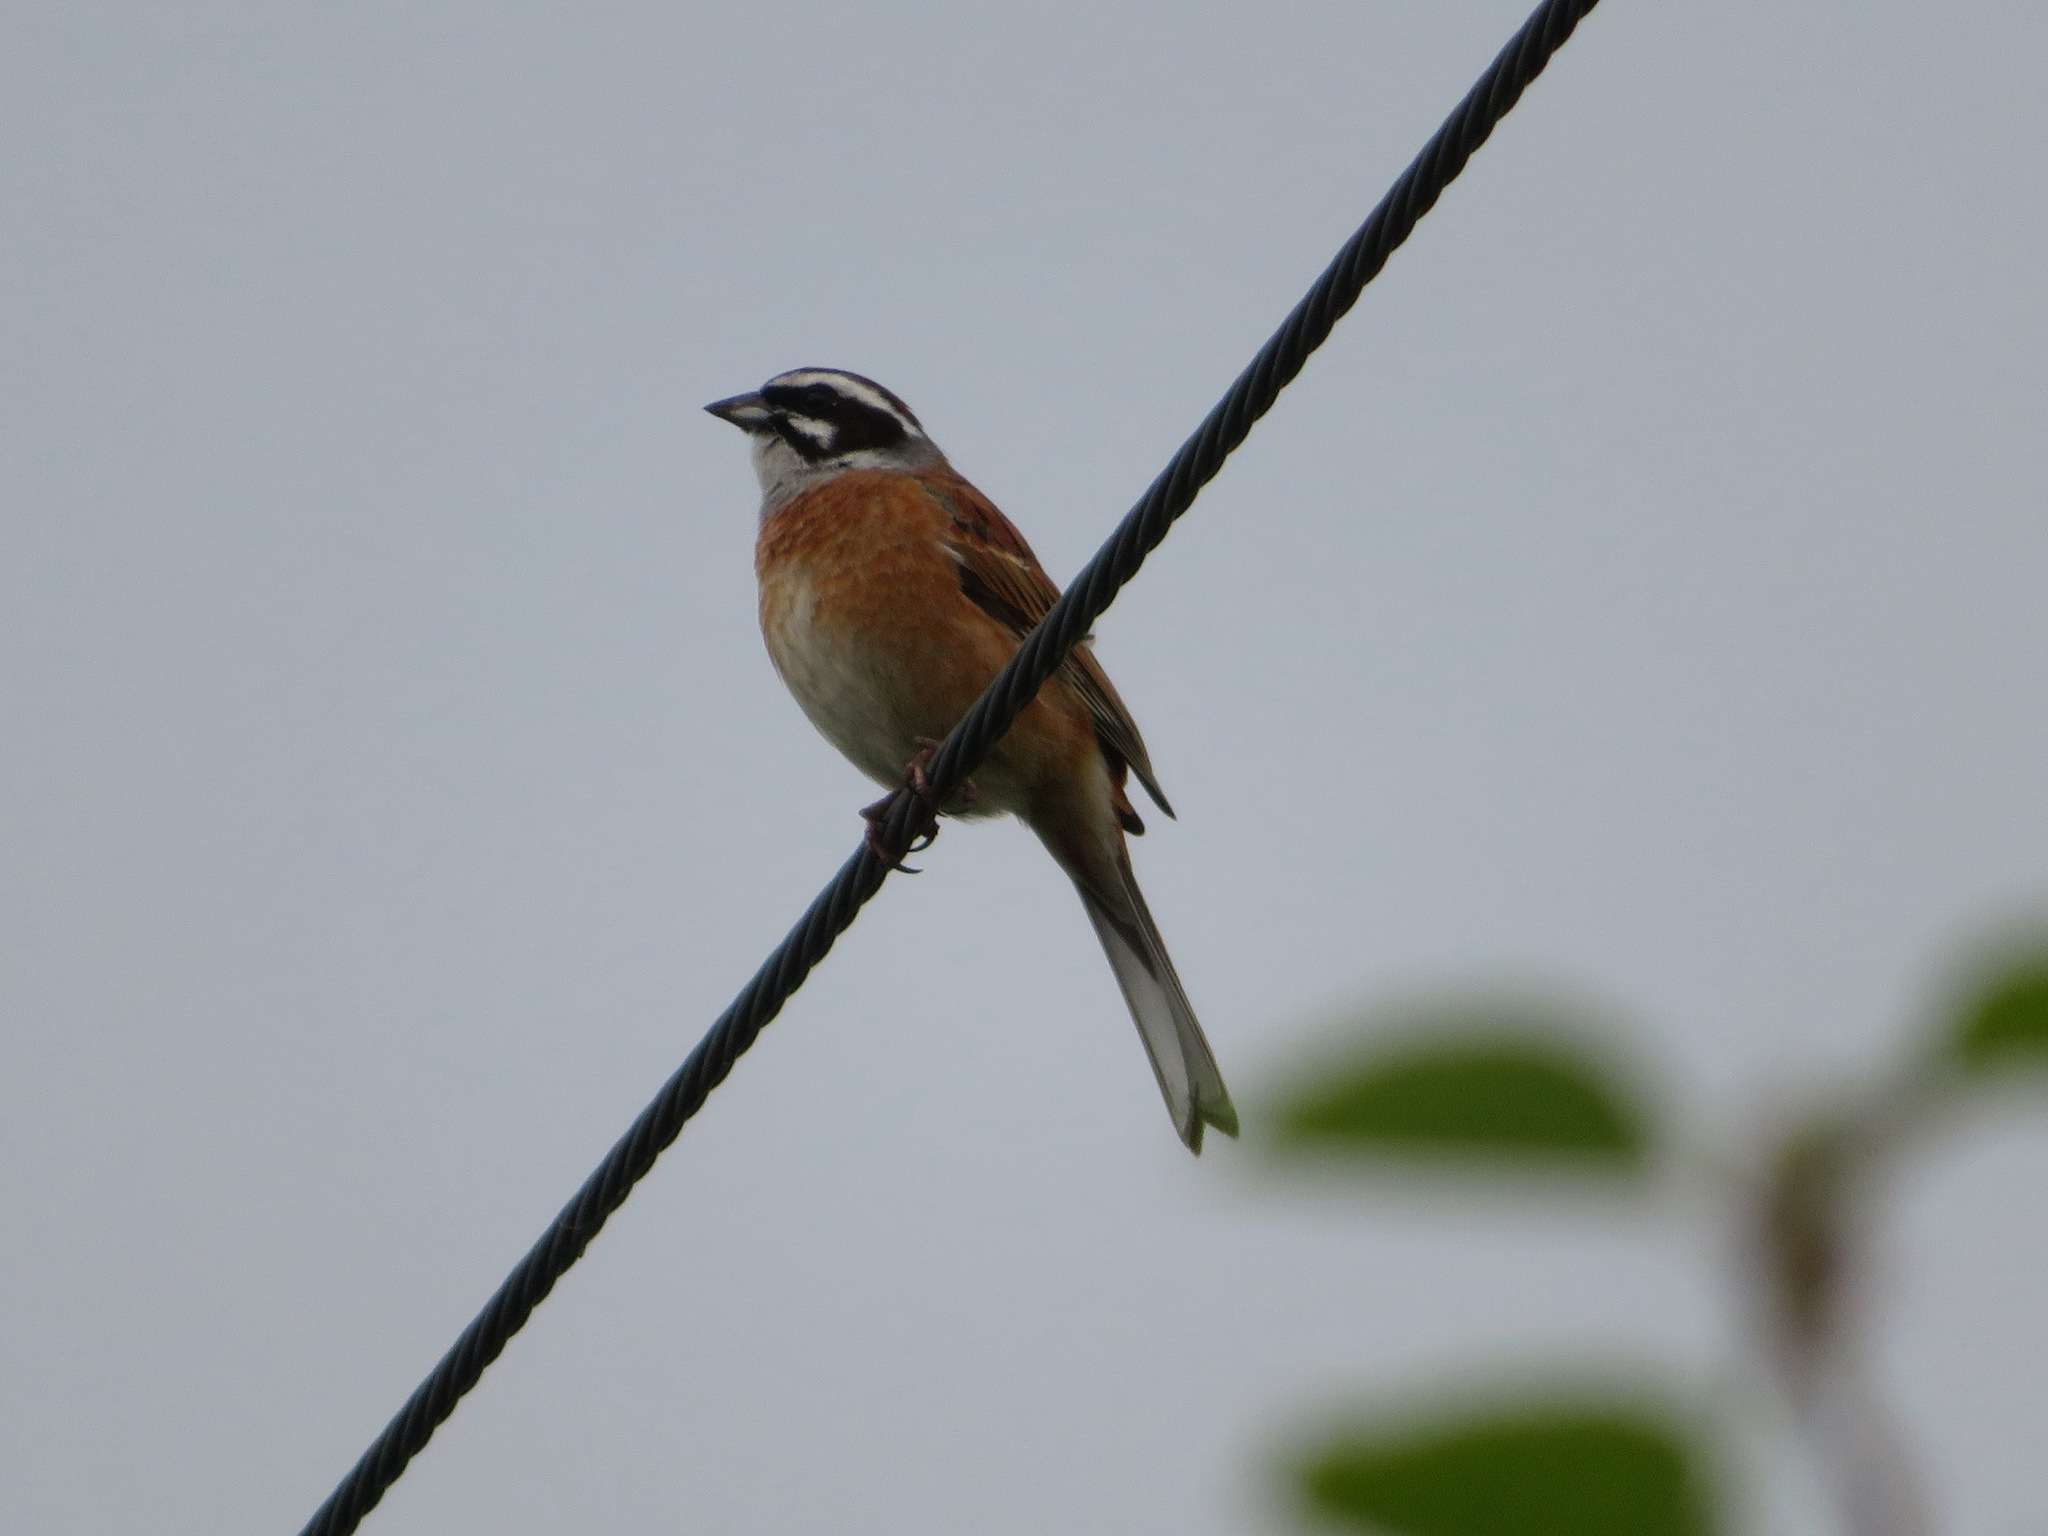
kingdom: Animalia
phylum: Chordata
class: Aves
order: Passeriformes
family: Emberizidae
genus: Emberiza
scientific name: Emberiza cioides
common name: Meadow bunting
